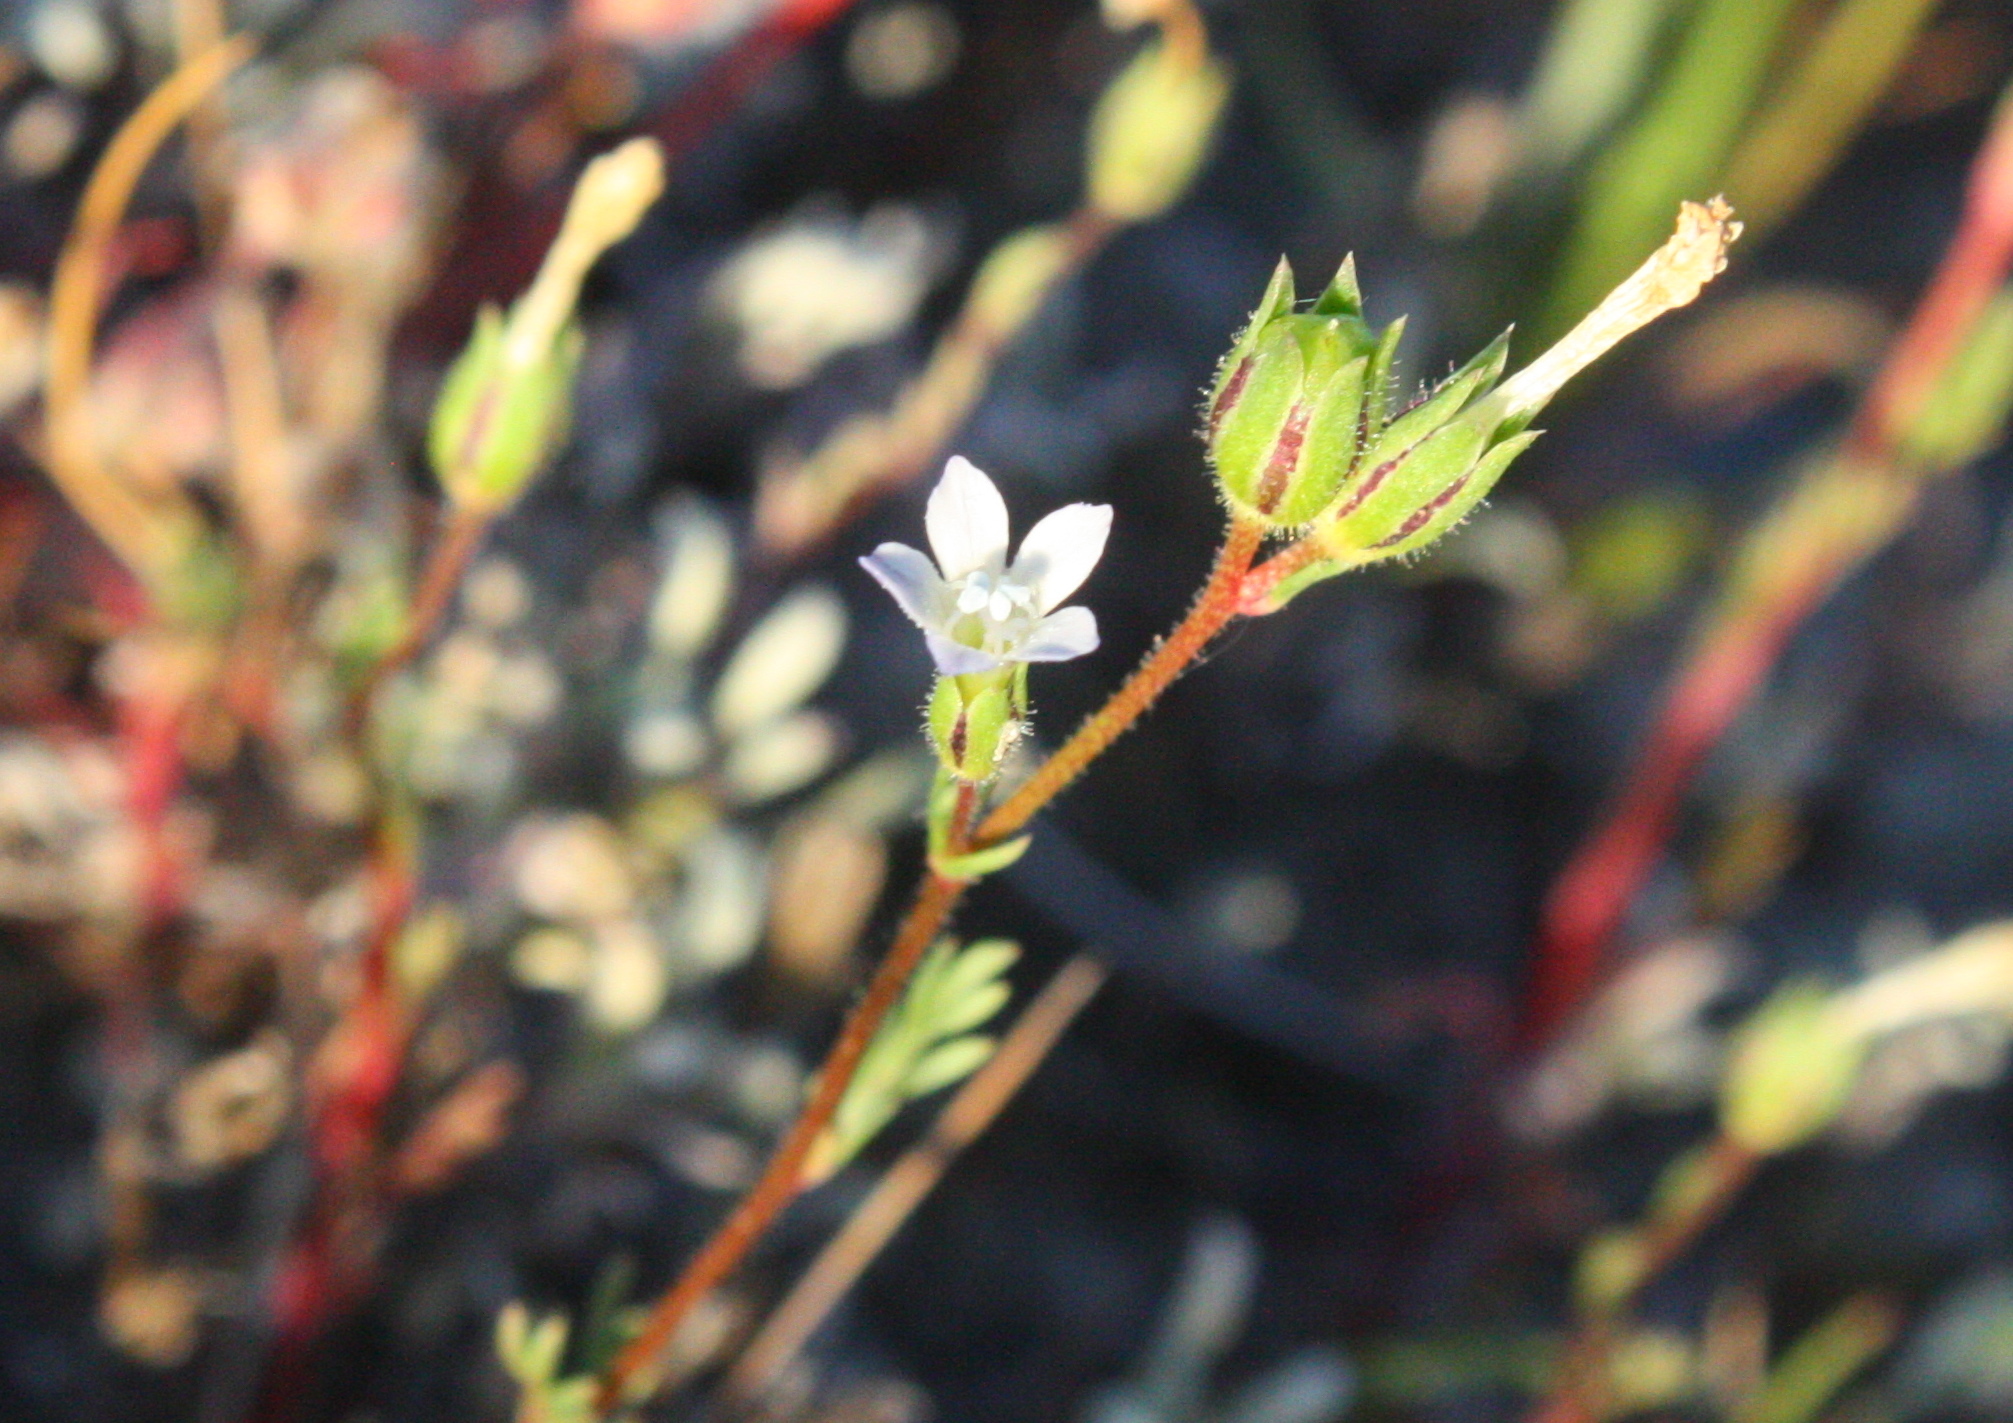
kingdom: Plantae
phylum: Tracheophyta
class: Magnoliopsida
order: Ericales
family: Polemoniaceae
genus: Gilia
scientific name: Gilia clivorum
